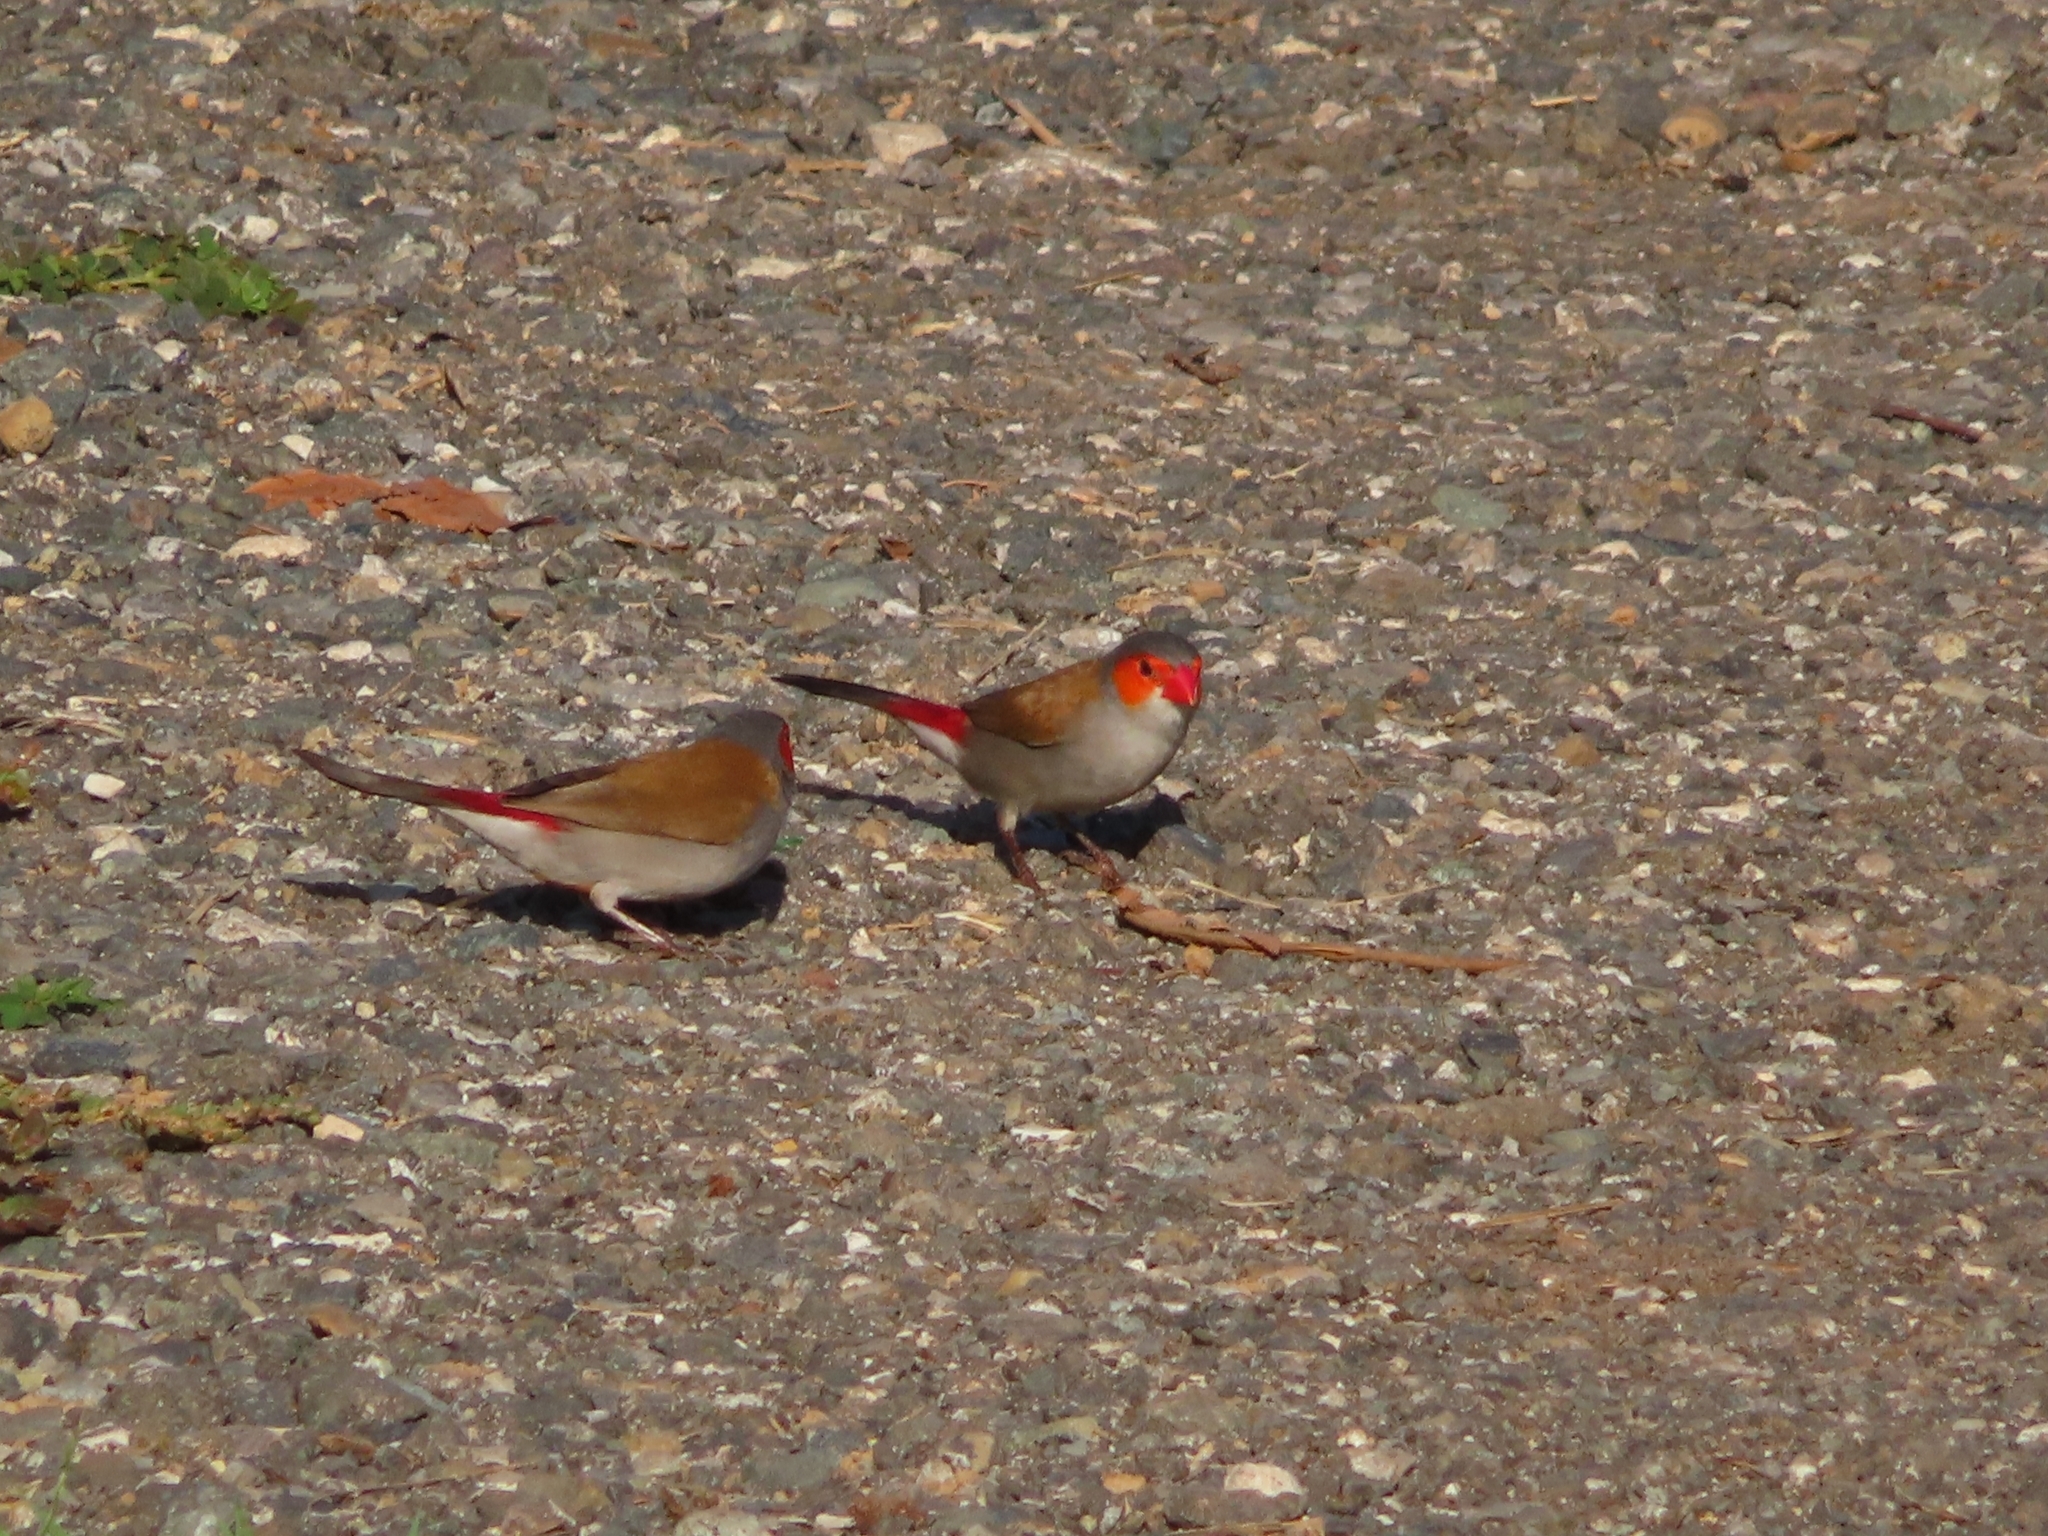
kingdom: Animalia
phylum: Chordata
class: Aves
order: Passeriformes
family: Estrildidae
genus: Estrilda
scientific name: Estrilda melpoda
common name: Orange-cheeked waxbill
